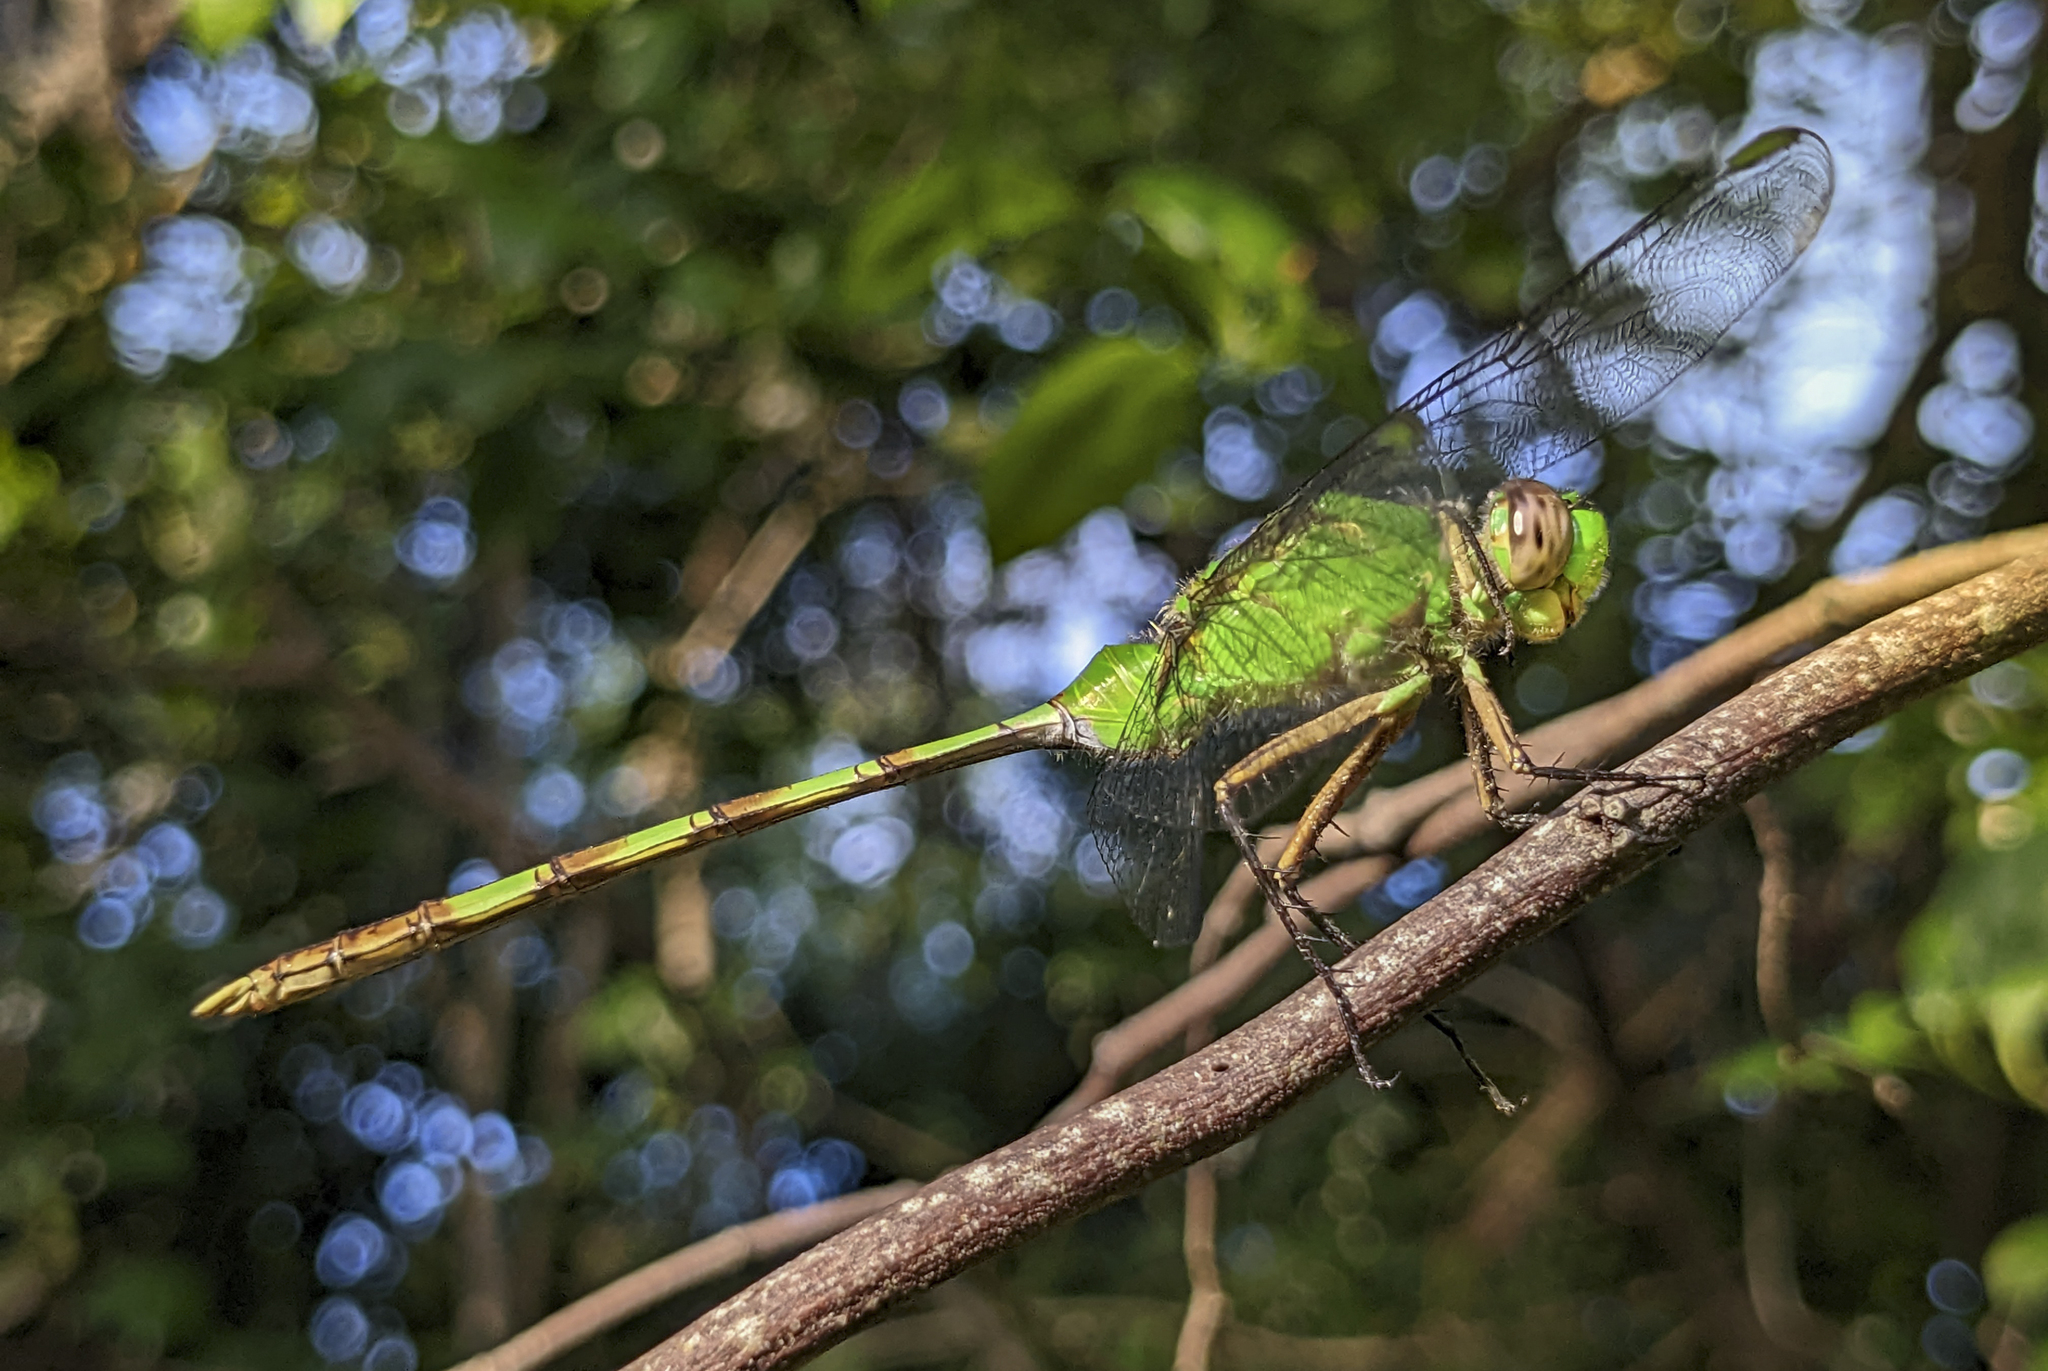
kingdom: Animalia
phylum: Arthropoda
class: Insecta
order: Odonata
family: Libellulidae
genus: Erythemis
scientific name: Erythemis vesiculosa
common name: Great pondhawk
